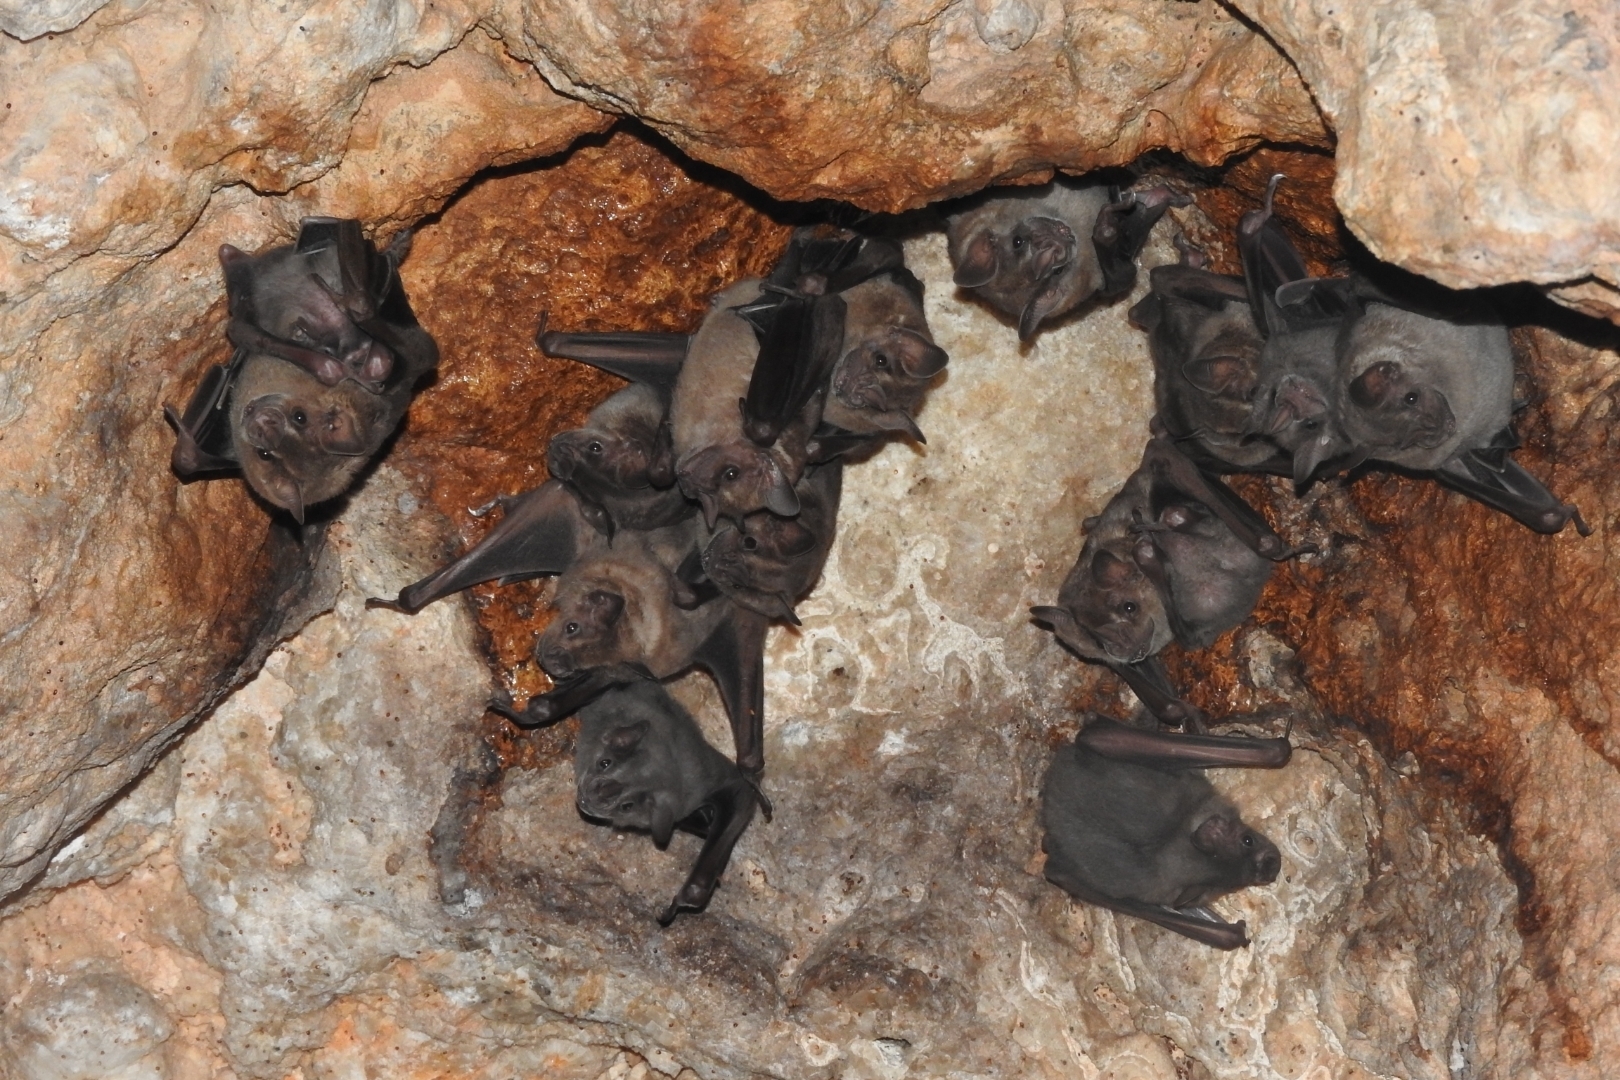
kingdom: Animalia
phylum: Chordata
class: Mammalia
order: Chiroptera
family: Phyllostomidae
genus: Artibeus
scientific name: Artibeus jamaicensis
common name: Jamaican fruit-eating bat
